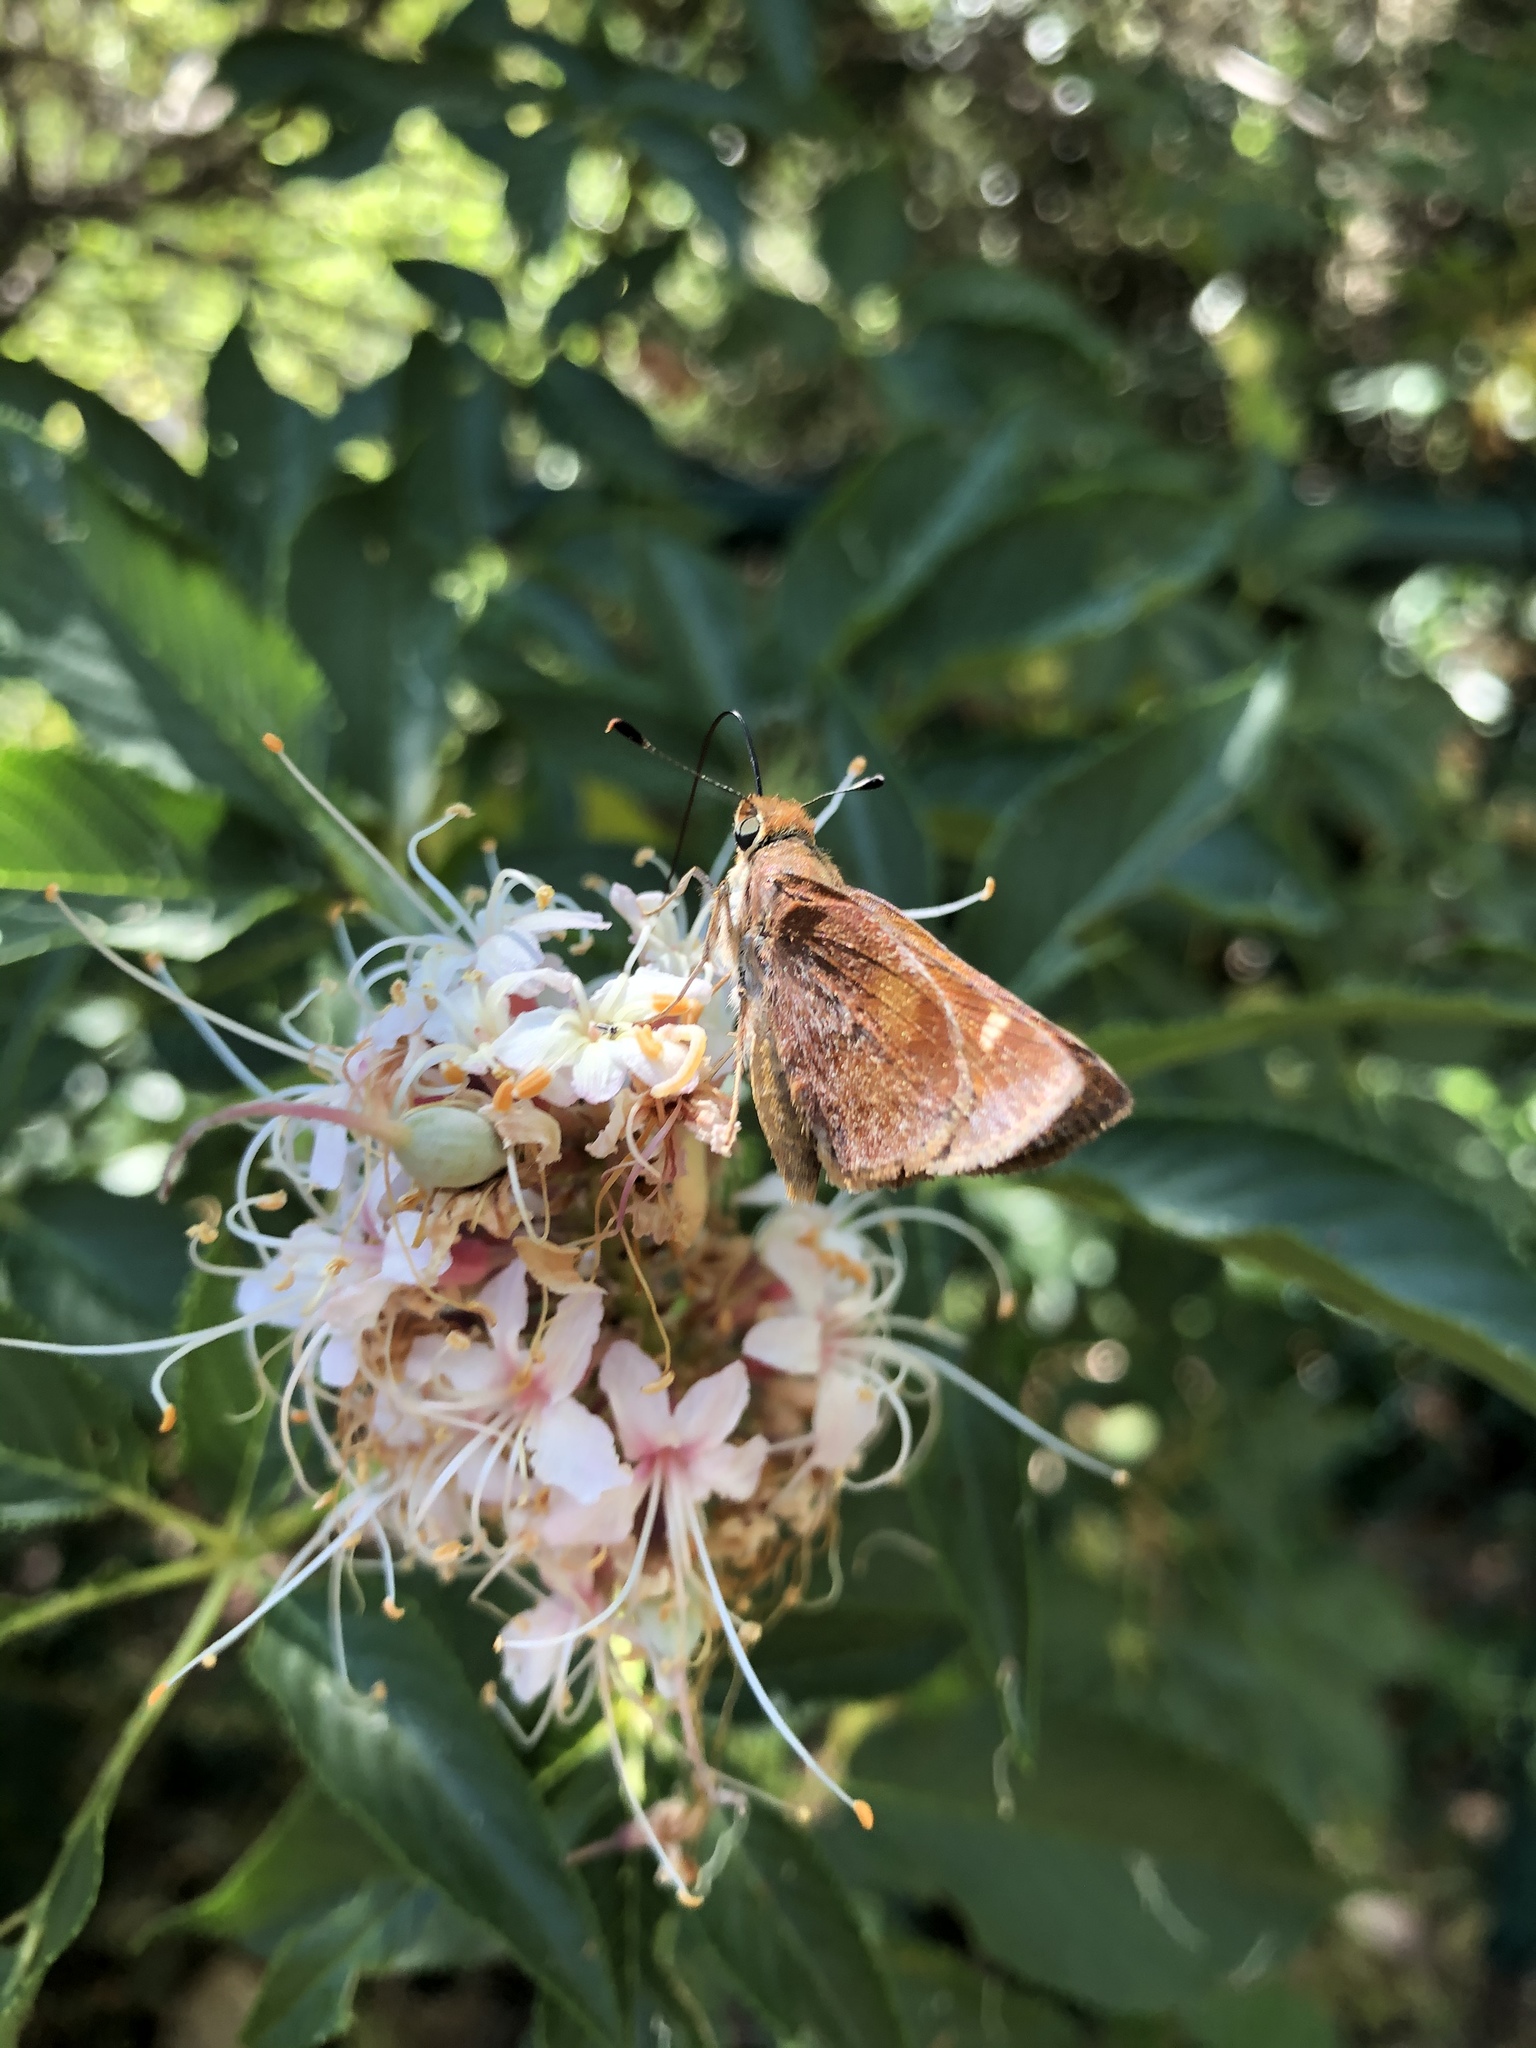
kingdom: Animalia
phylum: Arthropoda
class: Insecta
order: Lepidoptera
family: Hesperiidae
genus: Lon
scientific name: Lon melane
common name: Umber skipper
